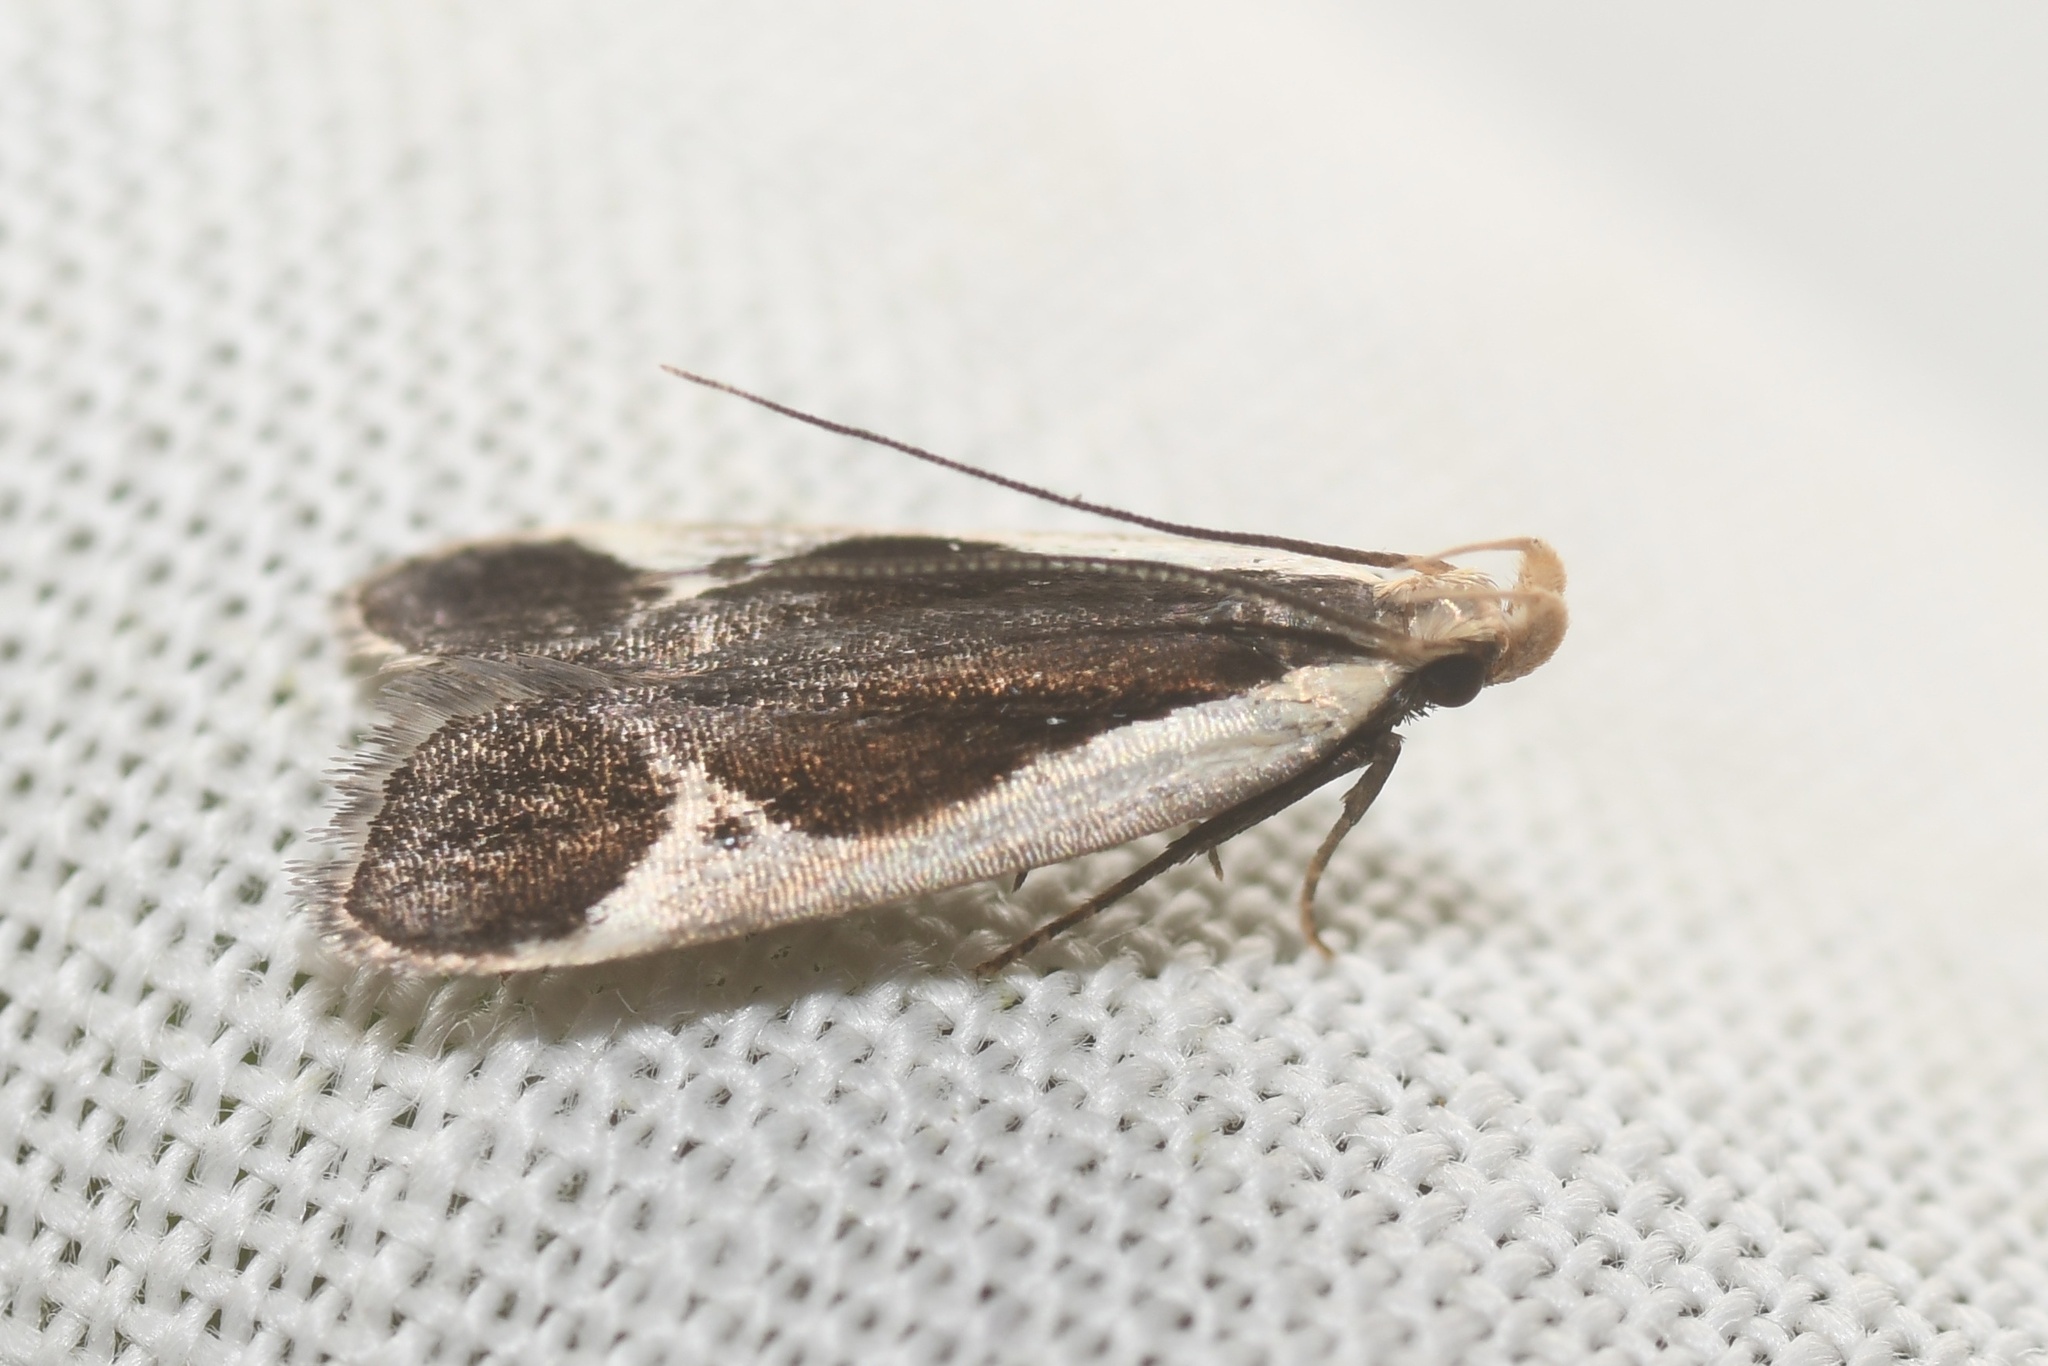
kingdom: Animalia
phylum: Arthropoda
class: Insecta
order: Lepidoptera
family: Gelechiidae
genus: Dichomeris
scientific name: Dichomeris flavocostella
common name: Cream-edged dichomeris moth
